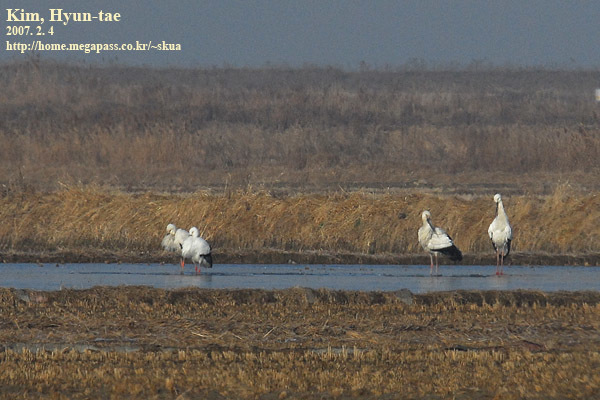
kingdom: Animalia
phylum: Chordata
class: Aves
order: Ciconiiformes
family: Ciconiidae
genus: Ciconia
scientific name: Ciconia boyciana
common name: Oriental stork
